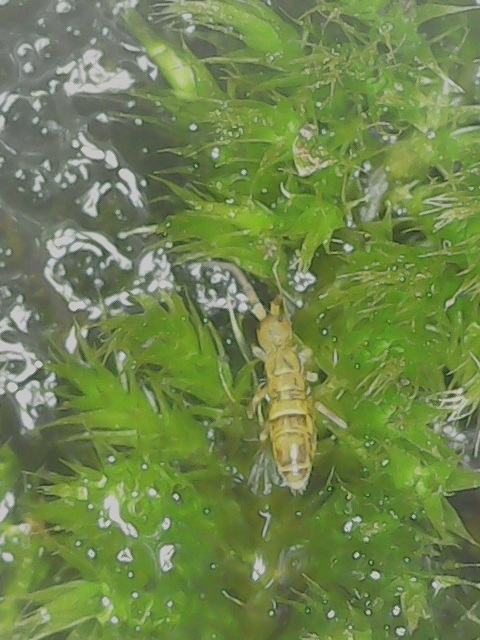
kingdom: Animalia
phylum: Arthropoda
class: Collembola
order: Entomobryomorpha
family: Orchesellidae
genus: Orchesella
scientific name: Orchesella cincta
